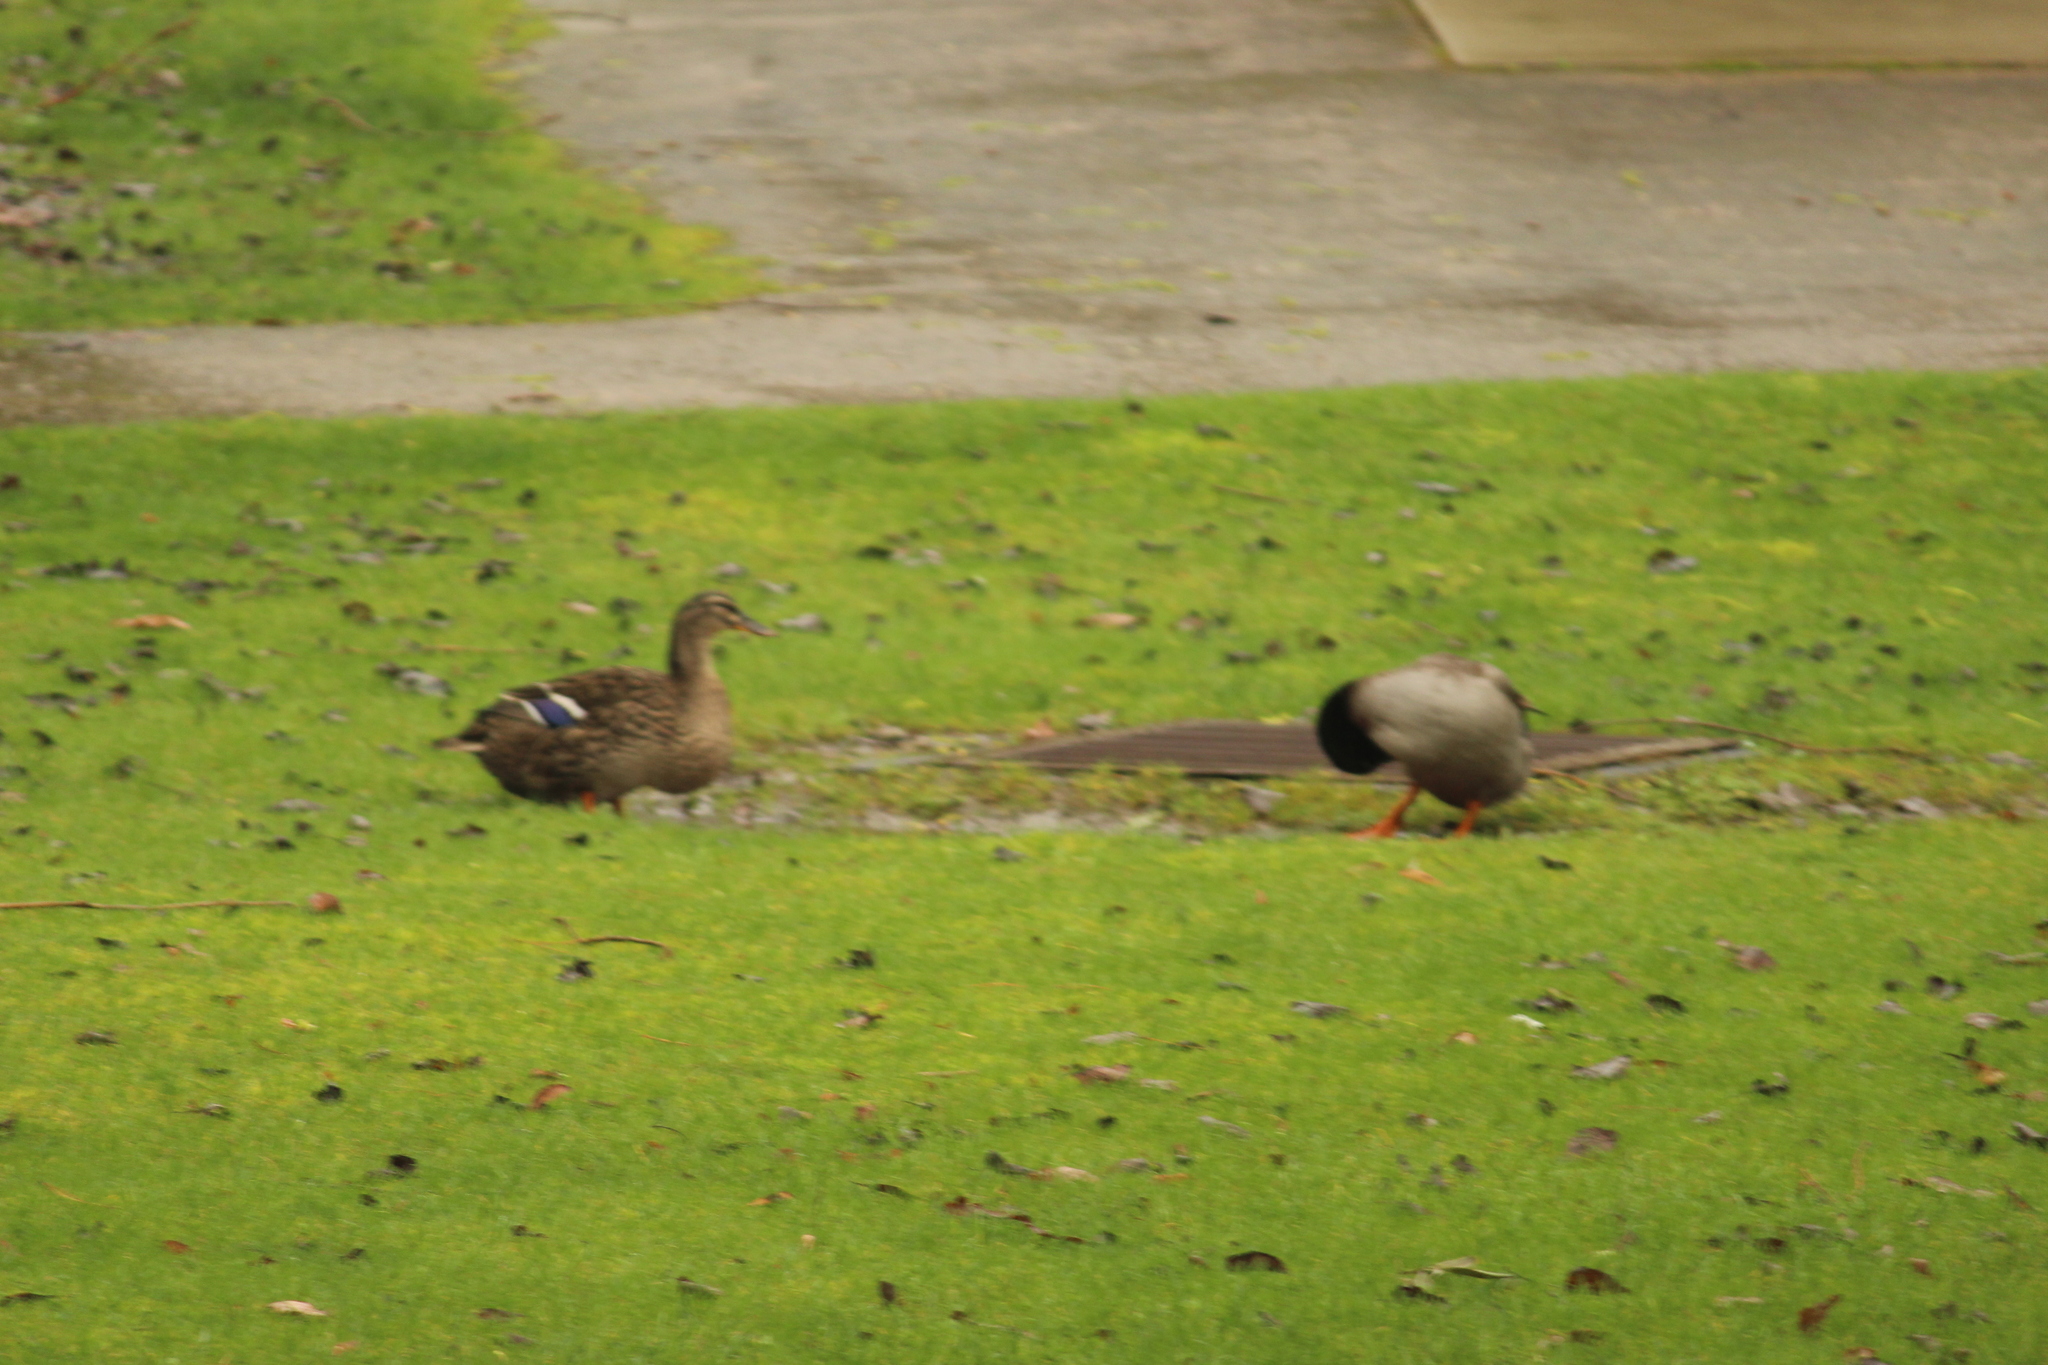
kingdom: Animalia
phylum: Chordata
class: Aves
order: Anseriformes
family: Anatidae
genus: Anas
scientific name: Anas platyrhynchos
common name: Mallard
